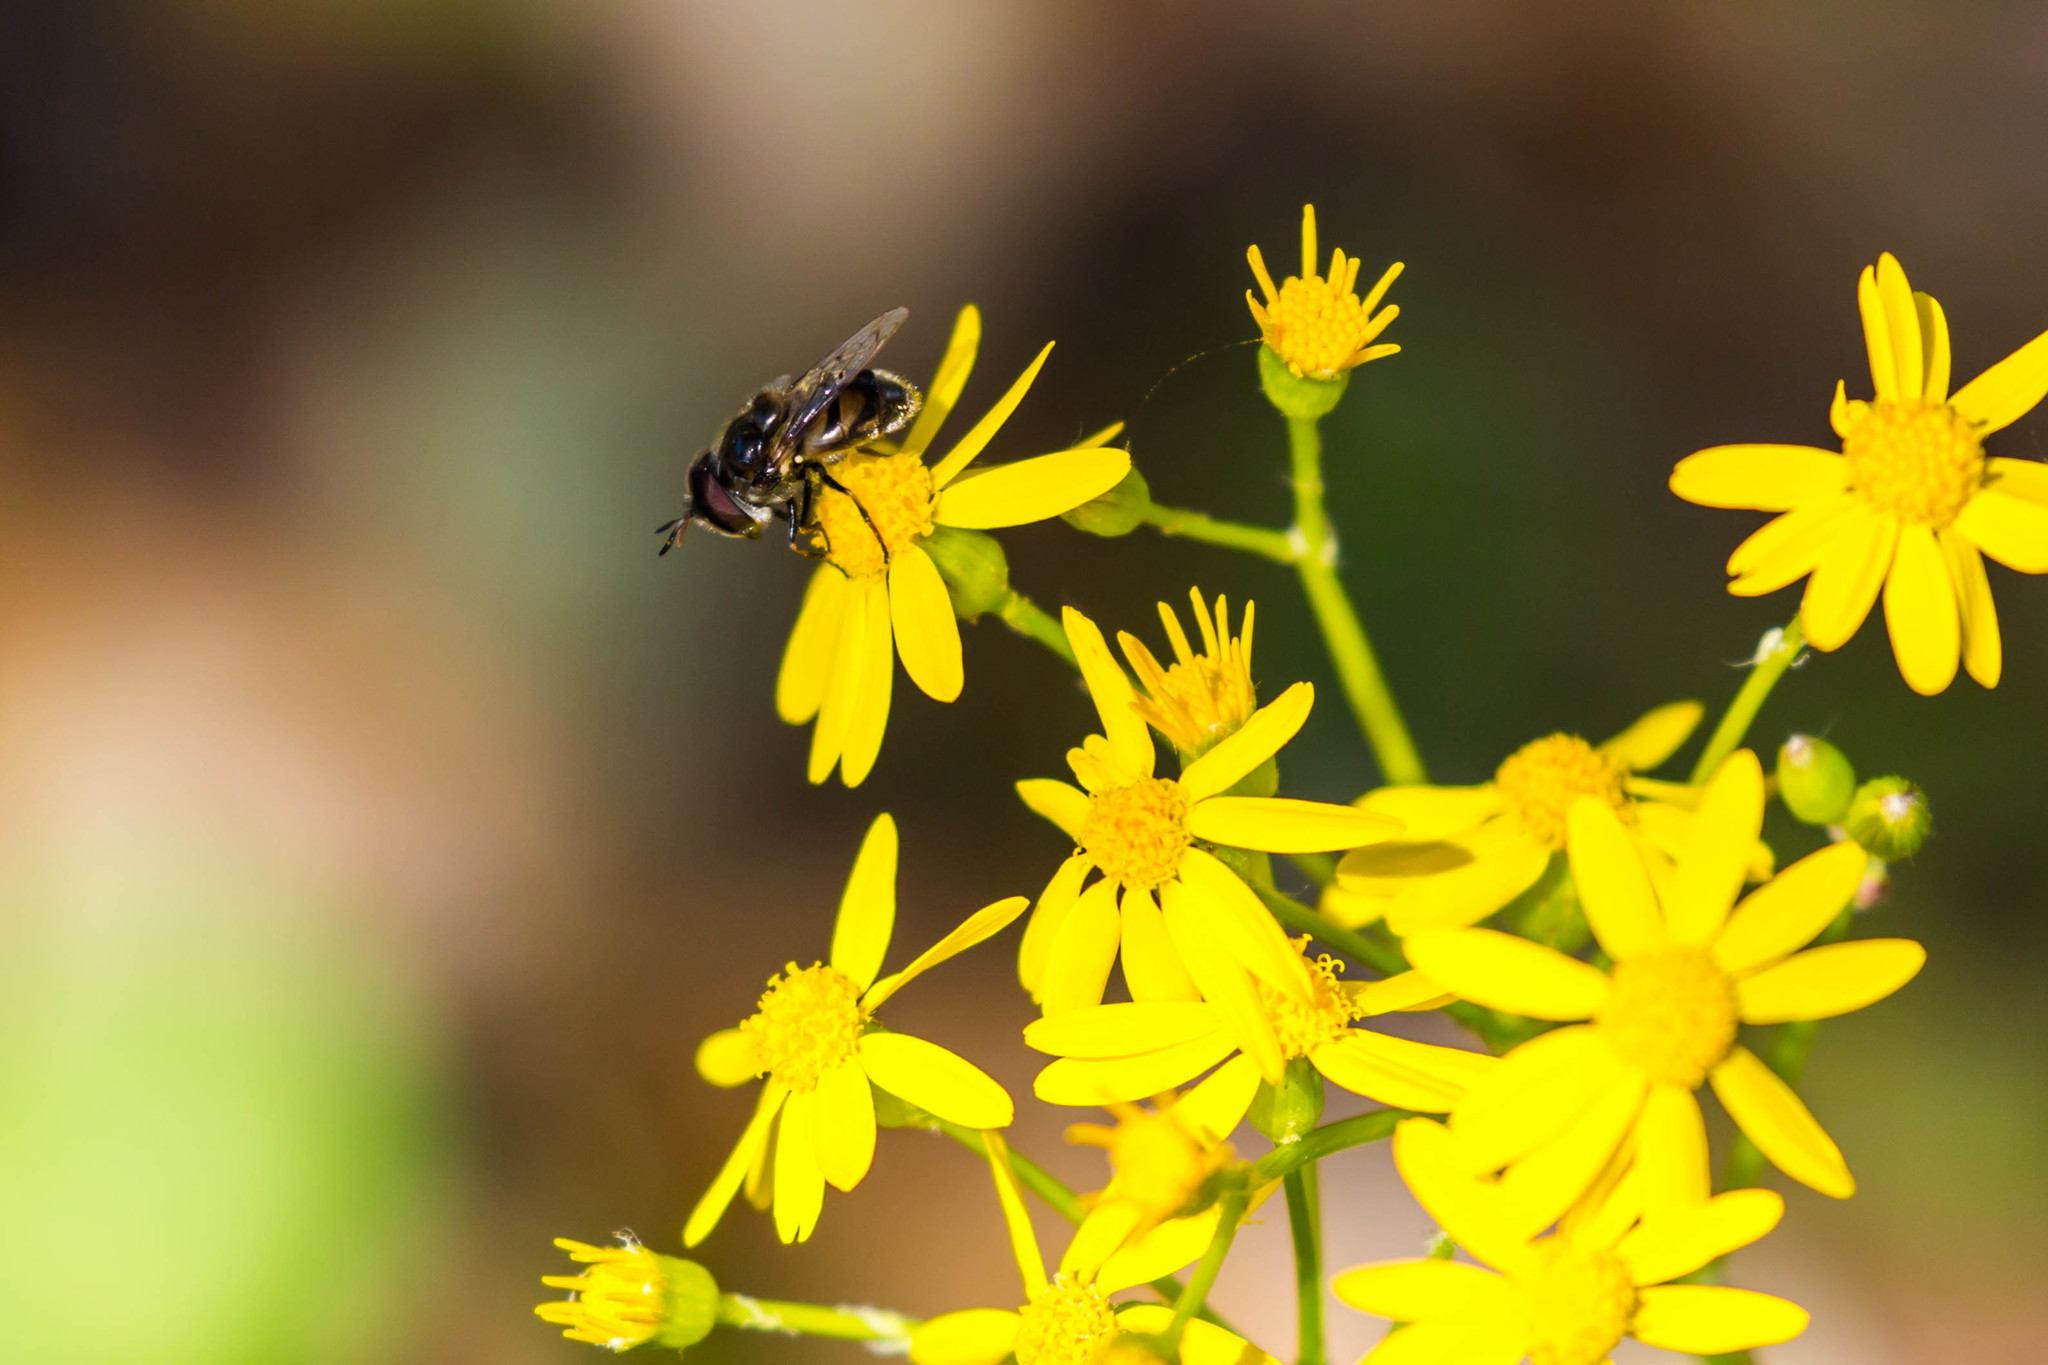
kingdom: Animalia
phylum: Arthropoda
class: Insecta
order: Diptera
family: Syrphidae
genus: Copestylum
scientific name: Copestylum marginatum
